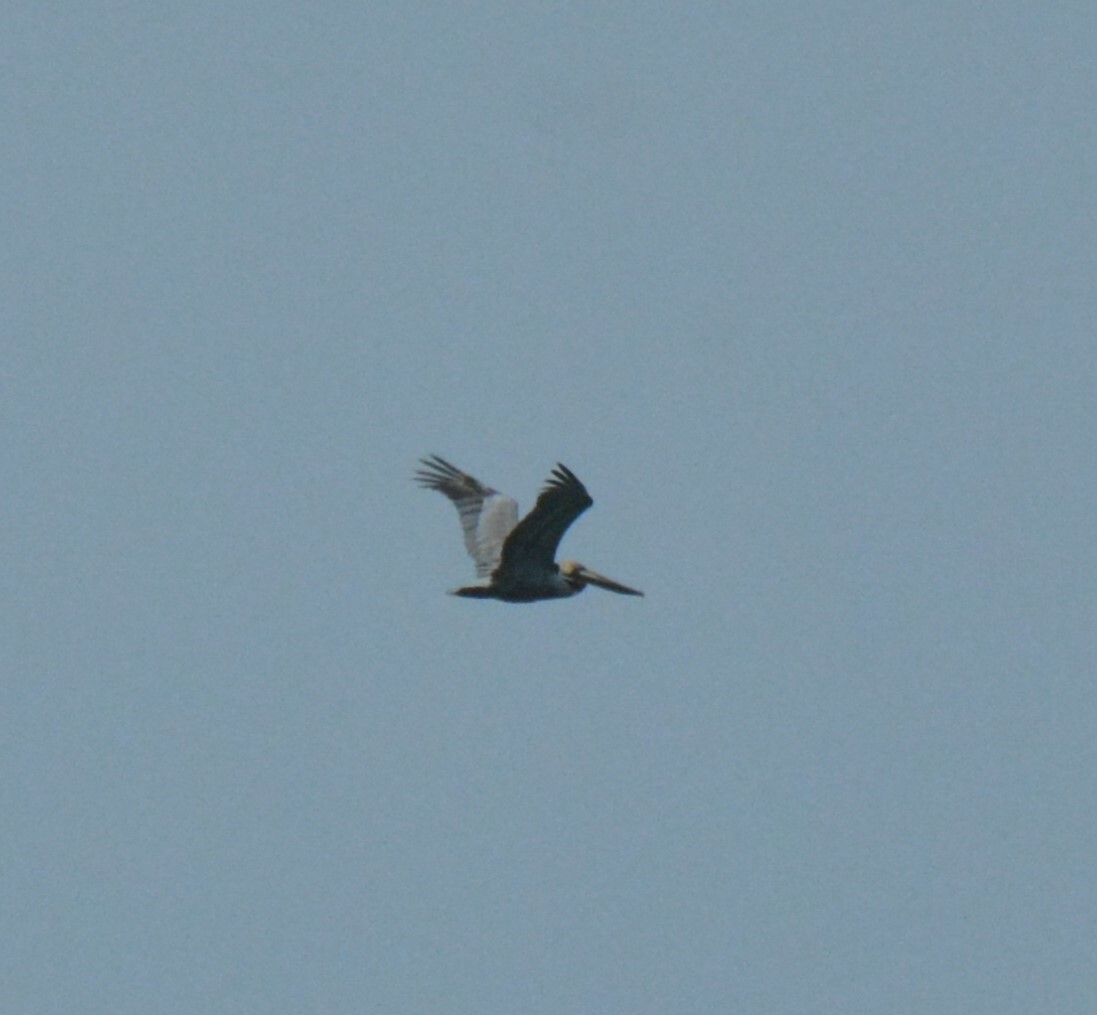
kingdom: Animalia
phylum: Chordata
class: Aves
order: Pelecaniformes
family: Pelecanidae
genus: Pelecanus
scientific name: Pelecanus occidentalis
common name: Brown pelican
